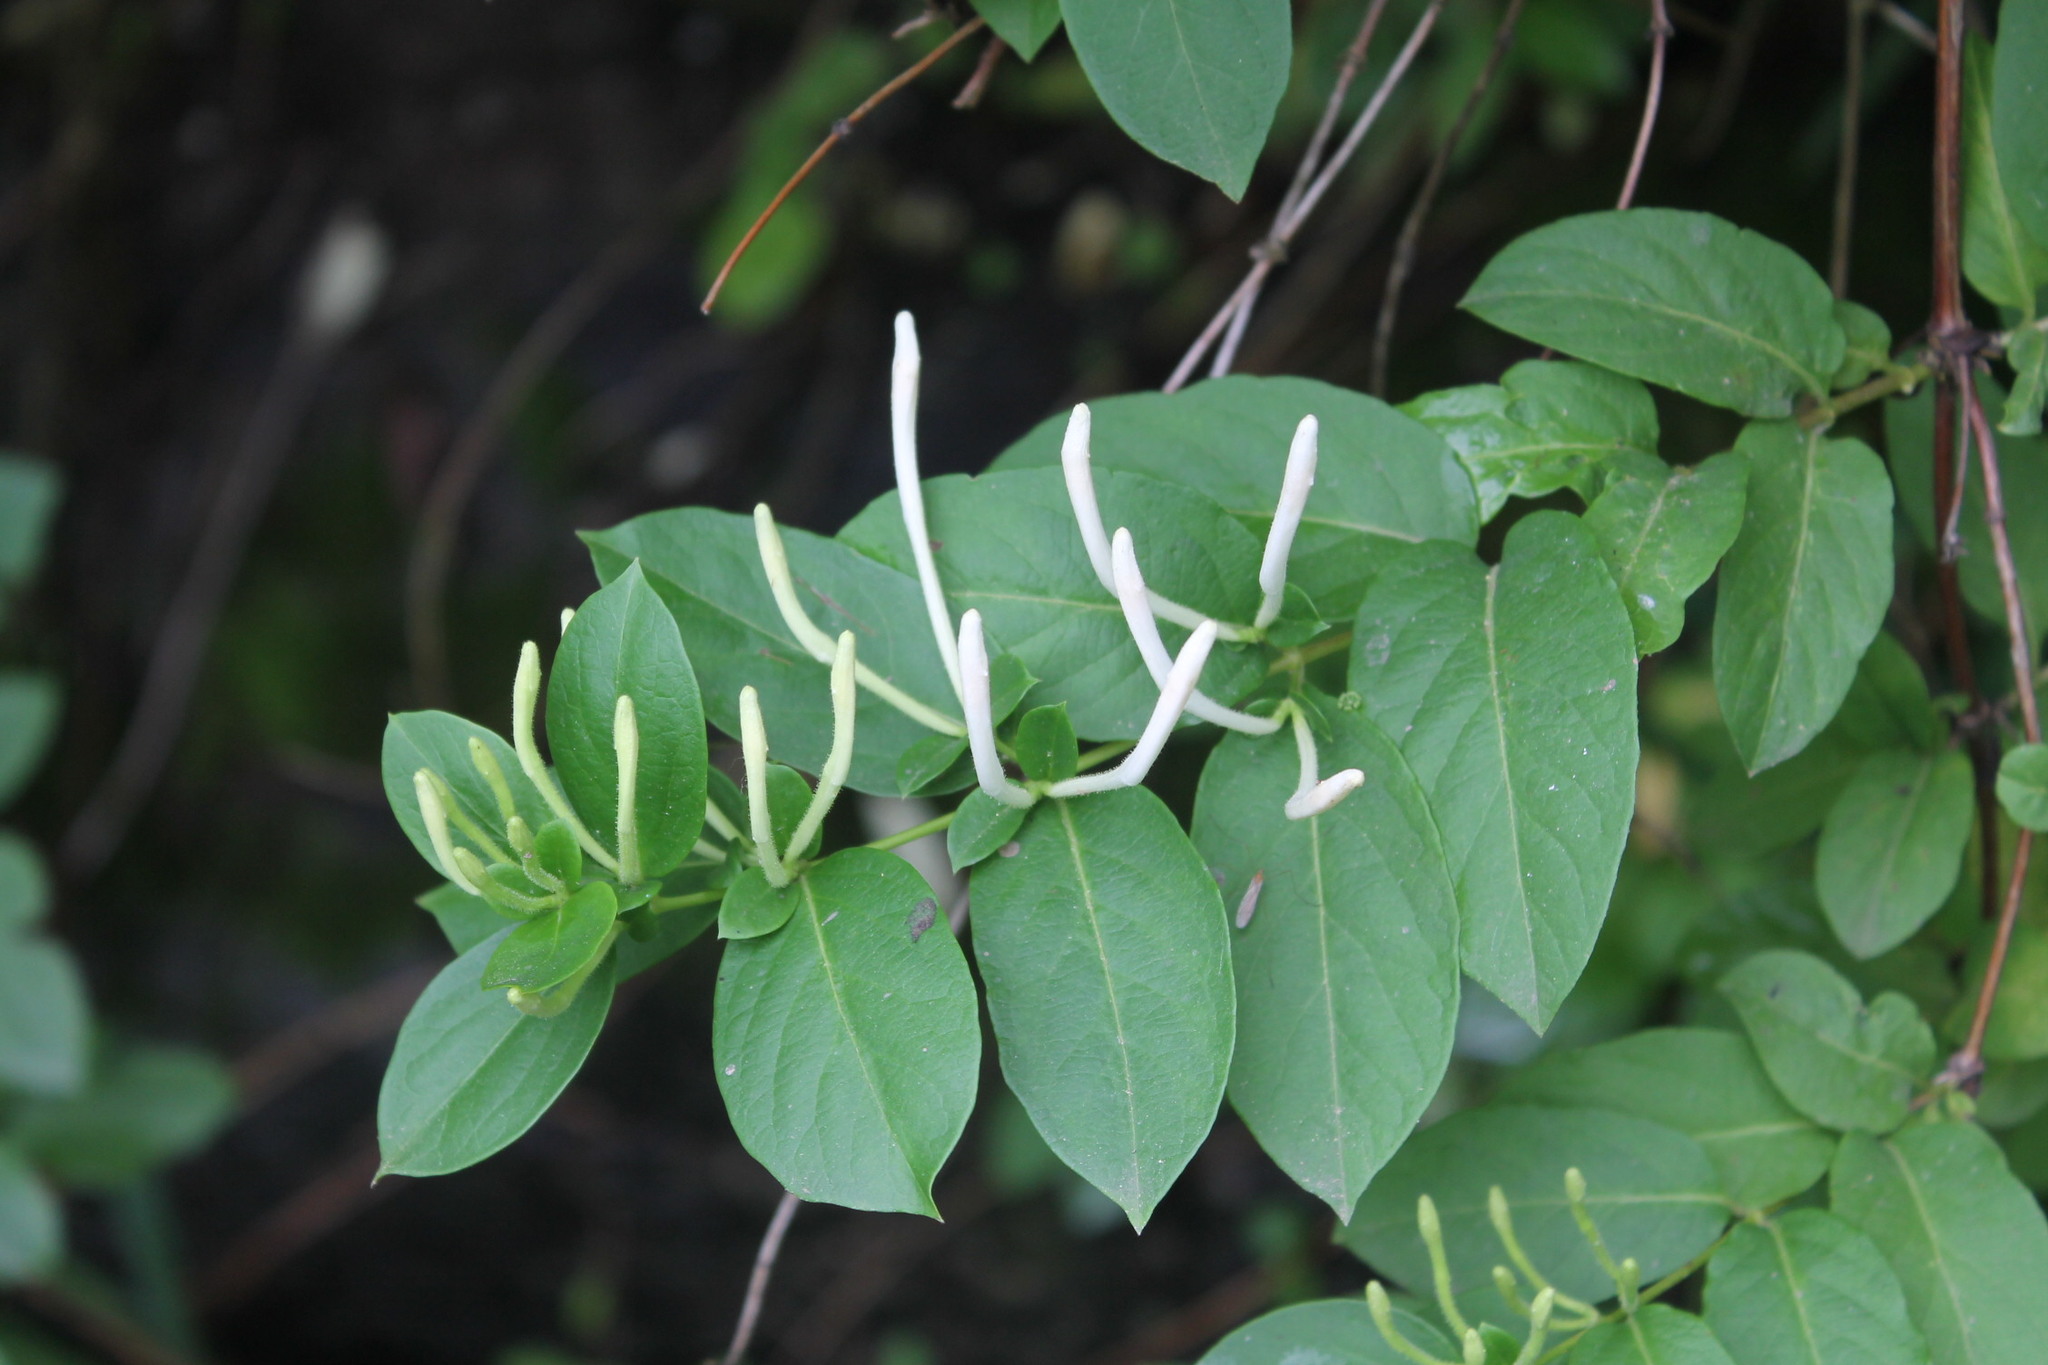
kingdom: Plantae
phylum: Tracheophyta
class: Magnoliopsida
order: Dipsacales
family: Caprifoliaceae
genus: Lonicera
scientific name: Lonicera japonica
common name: Japanese honeysuckle
